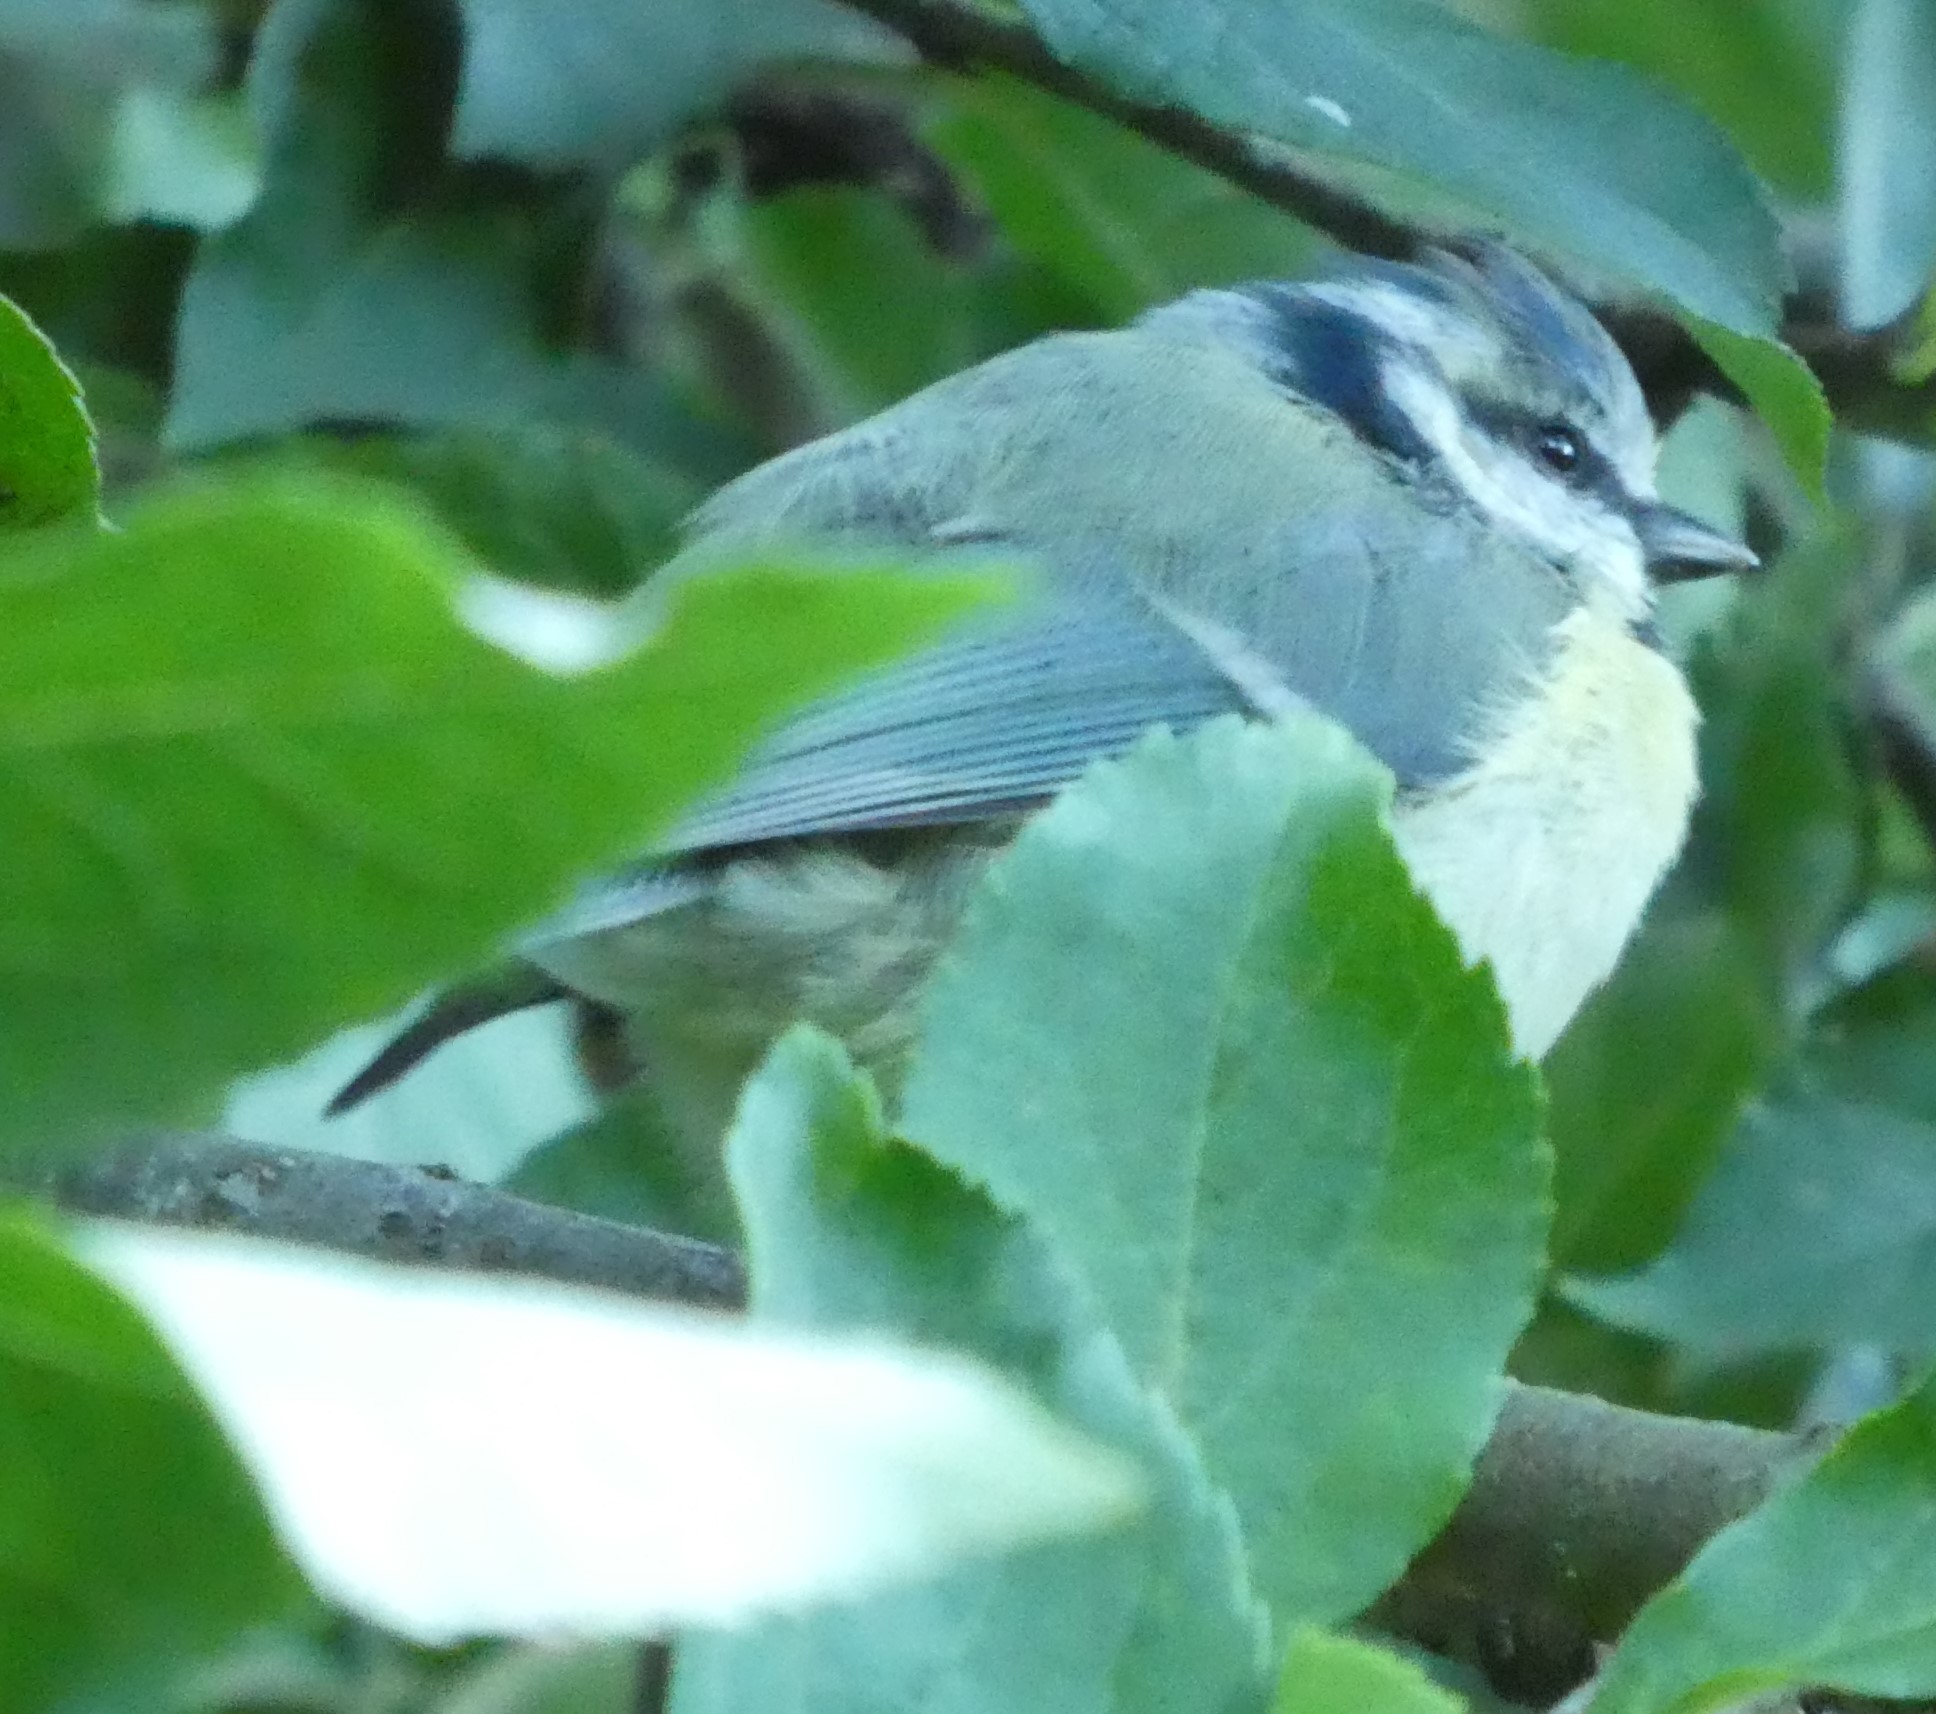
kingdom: Animalia
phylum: Chordata
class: Aves
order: Passeriformes
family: Paridae
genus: Cyanistes
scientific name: Cyanistes caeruleus
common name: Eurasian blue tit
